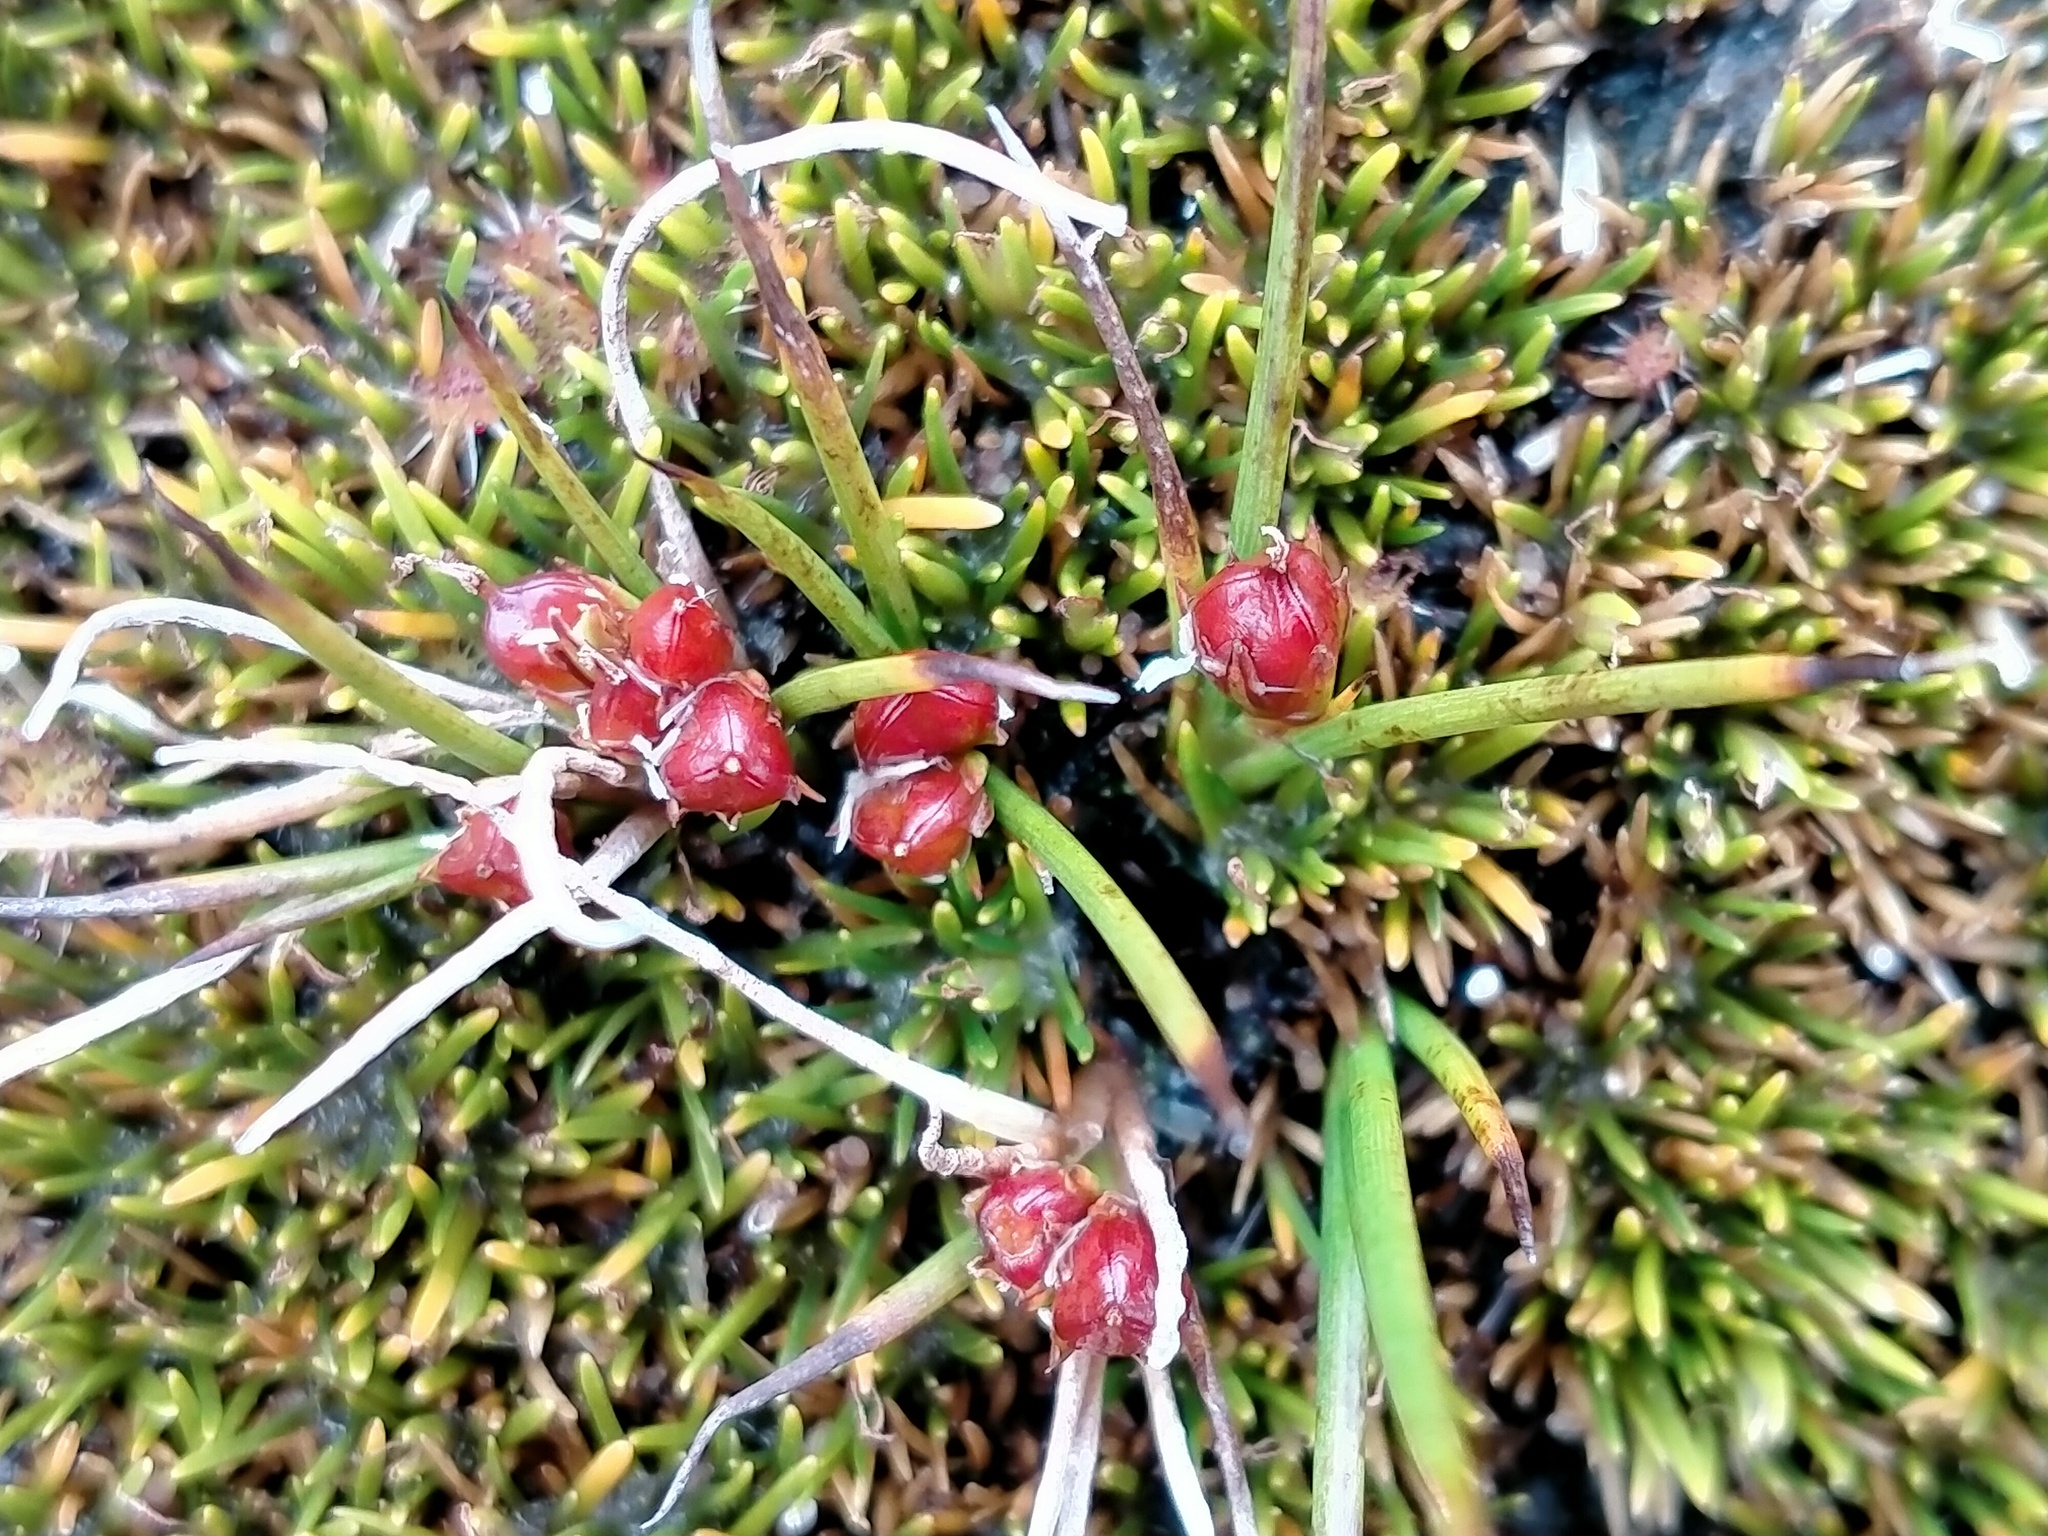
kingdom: Plantae
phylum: Tracheophyta
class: Liliopsida
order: Asparagales
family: Asteliaceae
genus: Astelia
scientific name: Astelia subulata
